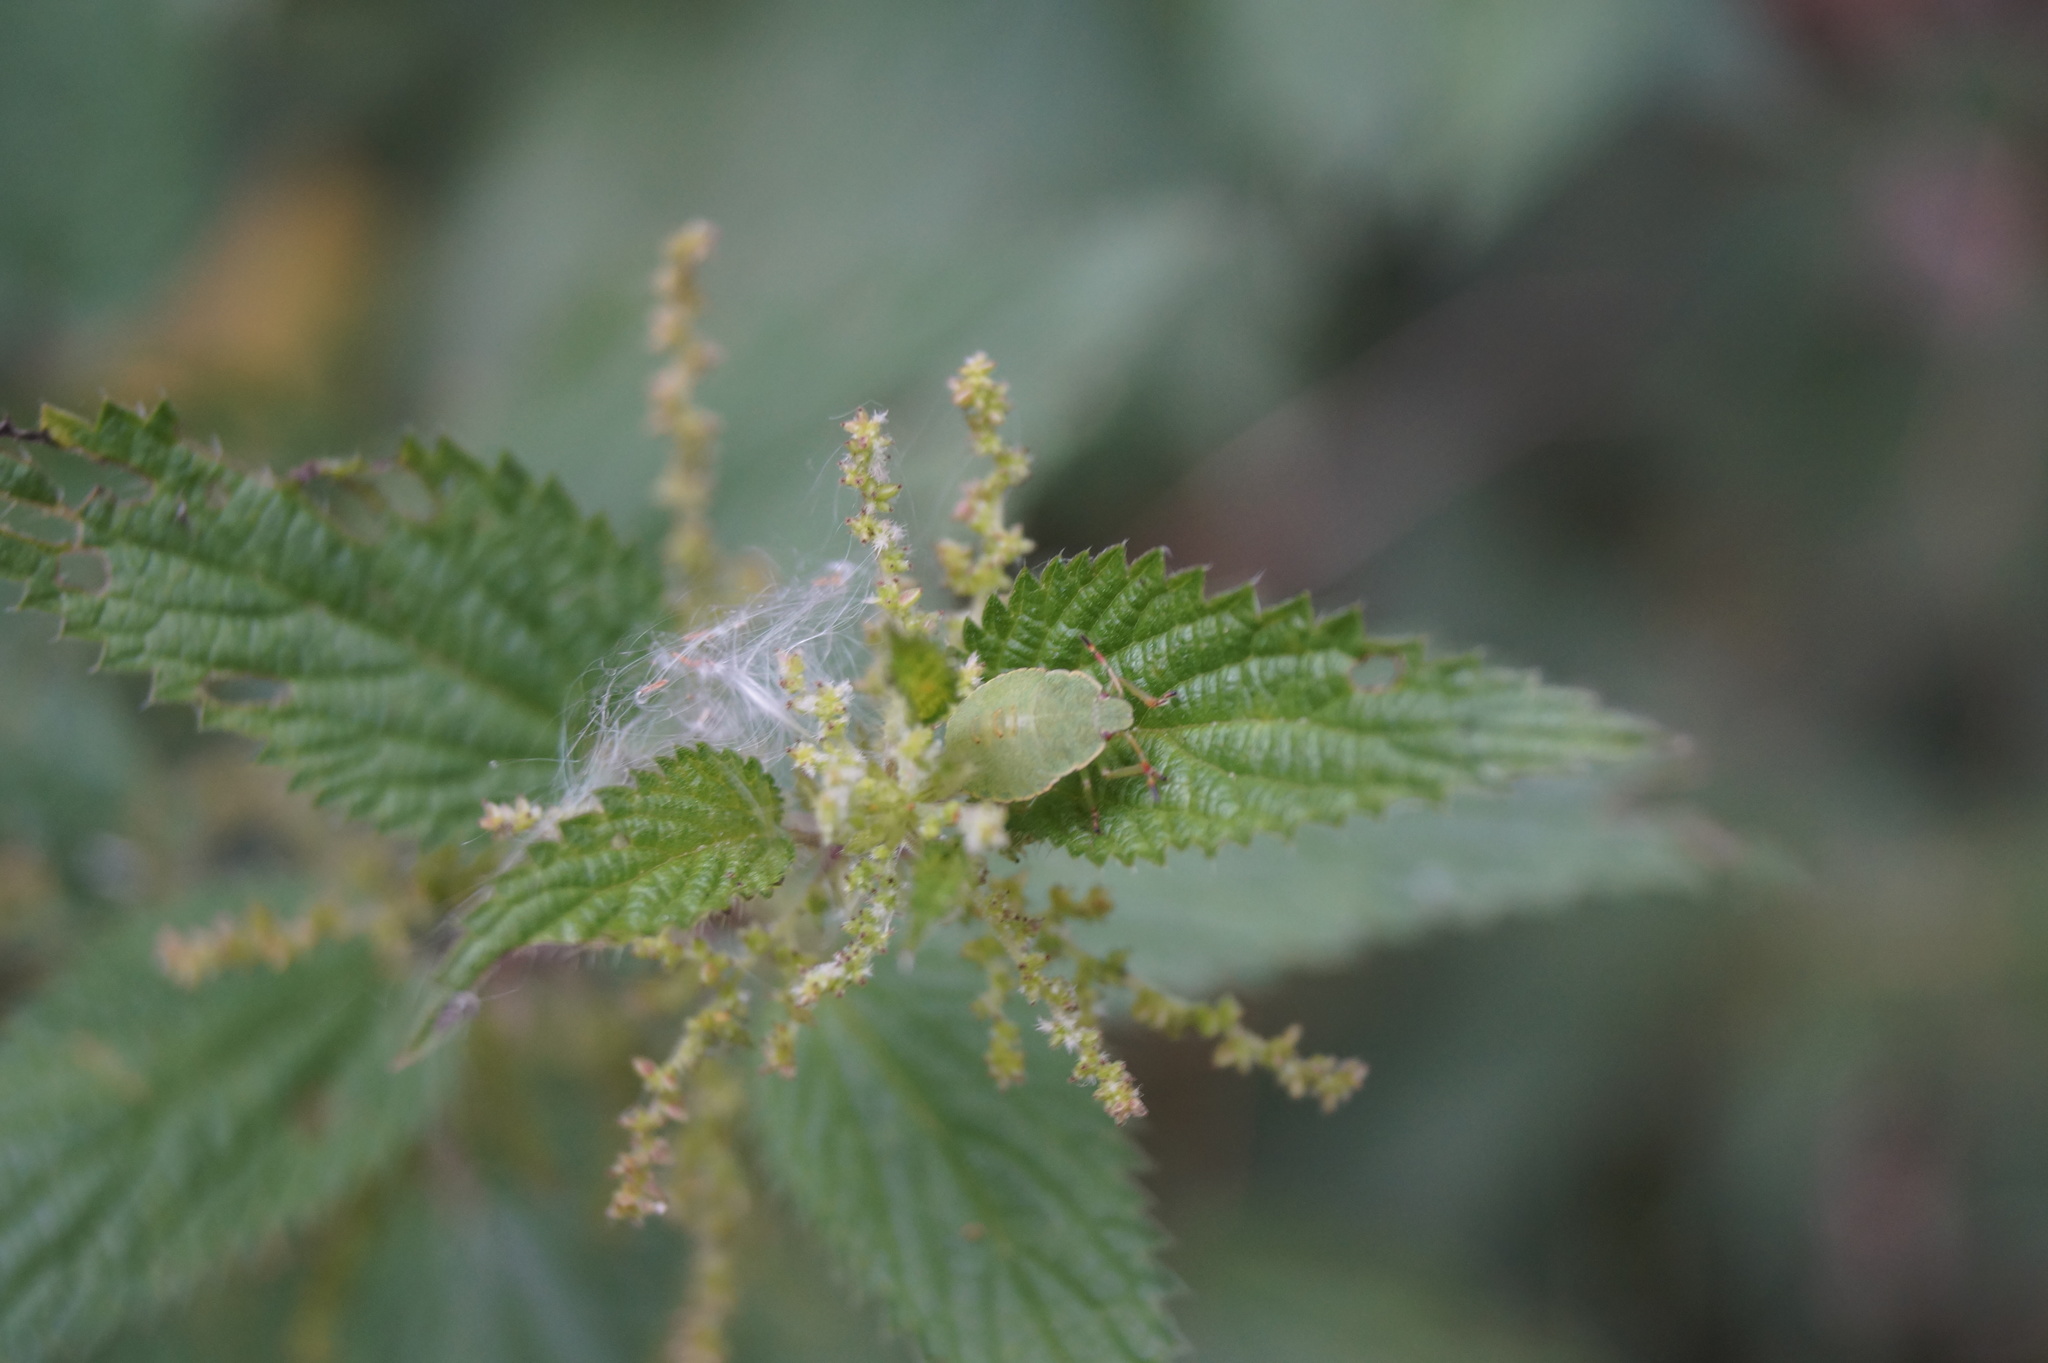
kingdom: Animalia
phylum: Arthropoda
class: Insecta
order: Hemiptera
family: Pentatomidae
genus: Palomena
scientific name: Palomena prasina
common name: Green shieldbug
